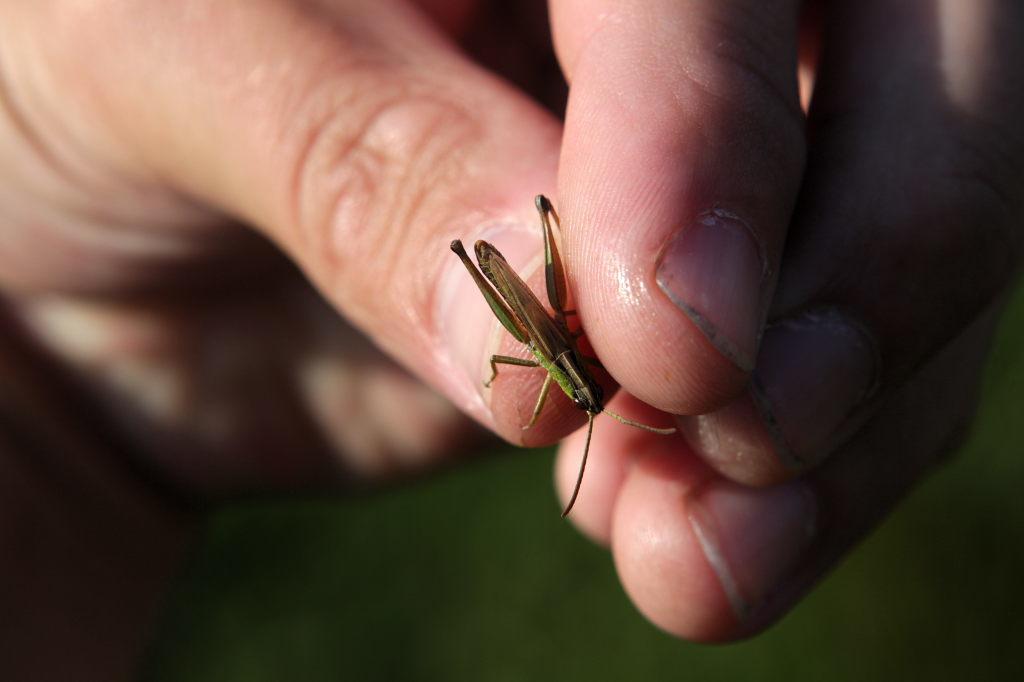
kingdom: Animalia
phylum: Arthropoda
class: Insecta
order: Orthoptera
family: Acrididae
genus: Pseudochorthippus
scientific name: Pseudochorthippus parallelus
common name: Meadow grasshopper
